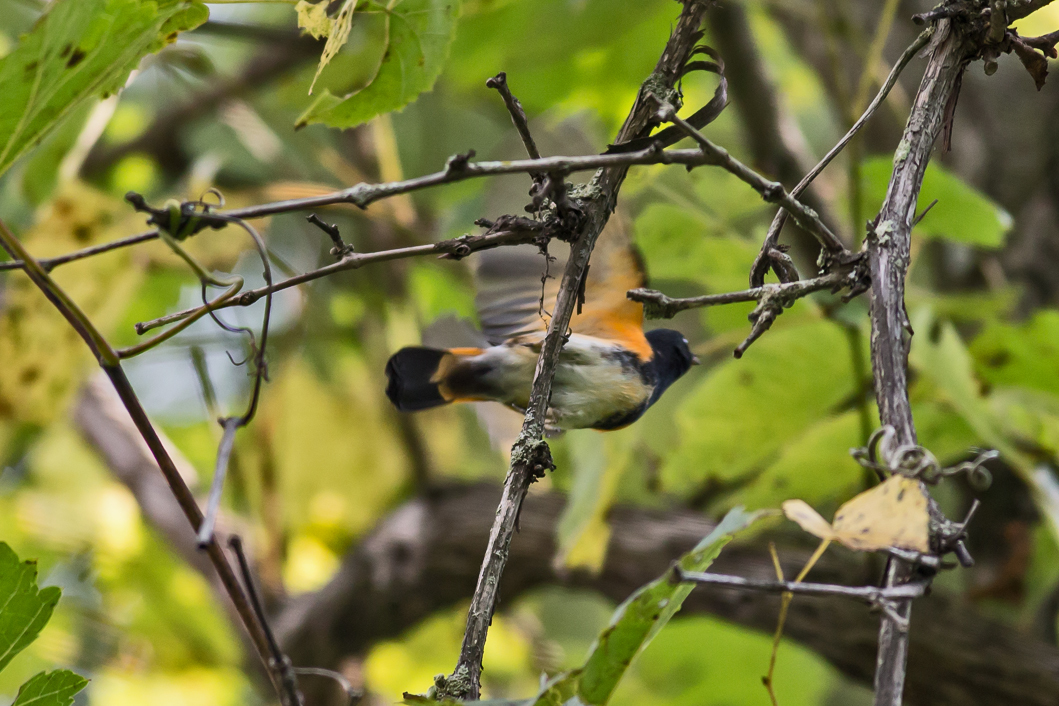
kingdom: Animalia
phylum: Chordata
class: Aves
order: Passeriformes
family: Parulidae
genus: Setophaga
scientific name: Setophaga ruticilla
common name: American redstart
